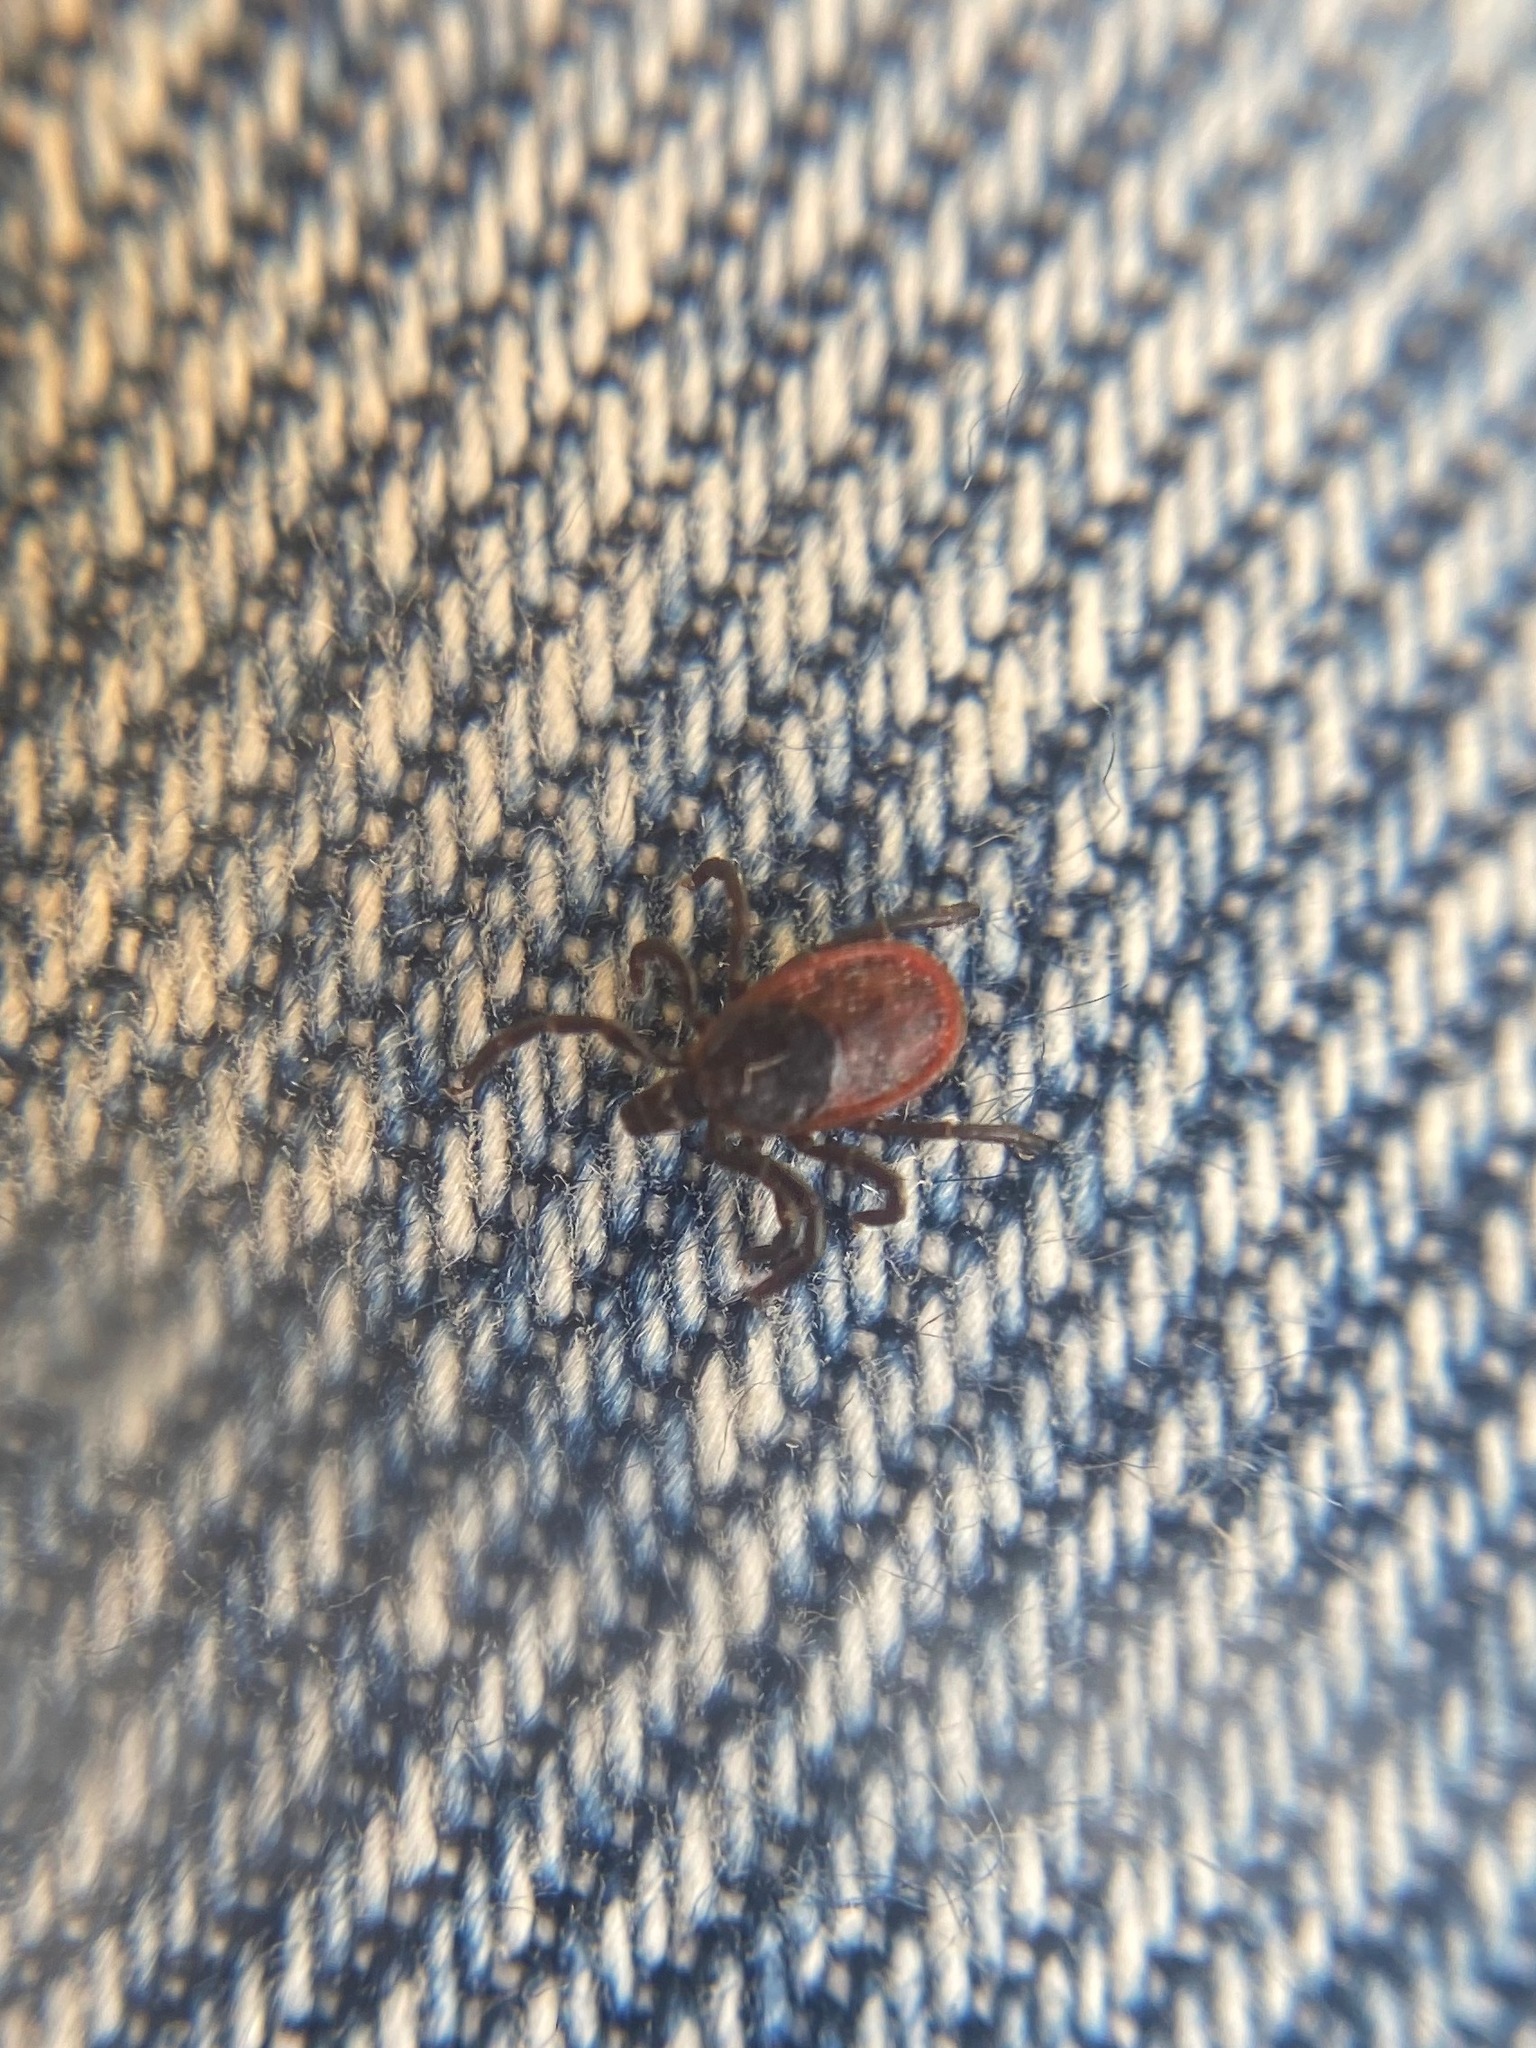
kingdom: Animalia
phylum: Arthropoda
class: Arachnida
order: Ixodida
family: Ixodidae
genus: Ixodes
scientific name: Ixodes pacificus
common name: California black-legged tick
